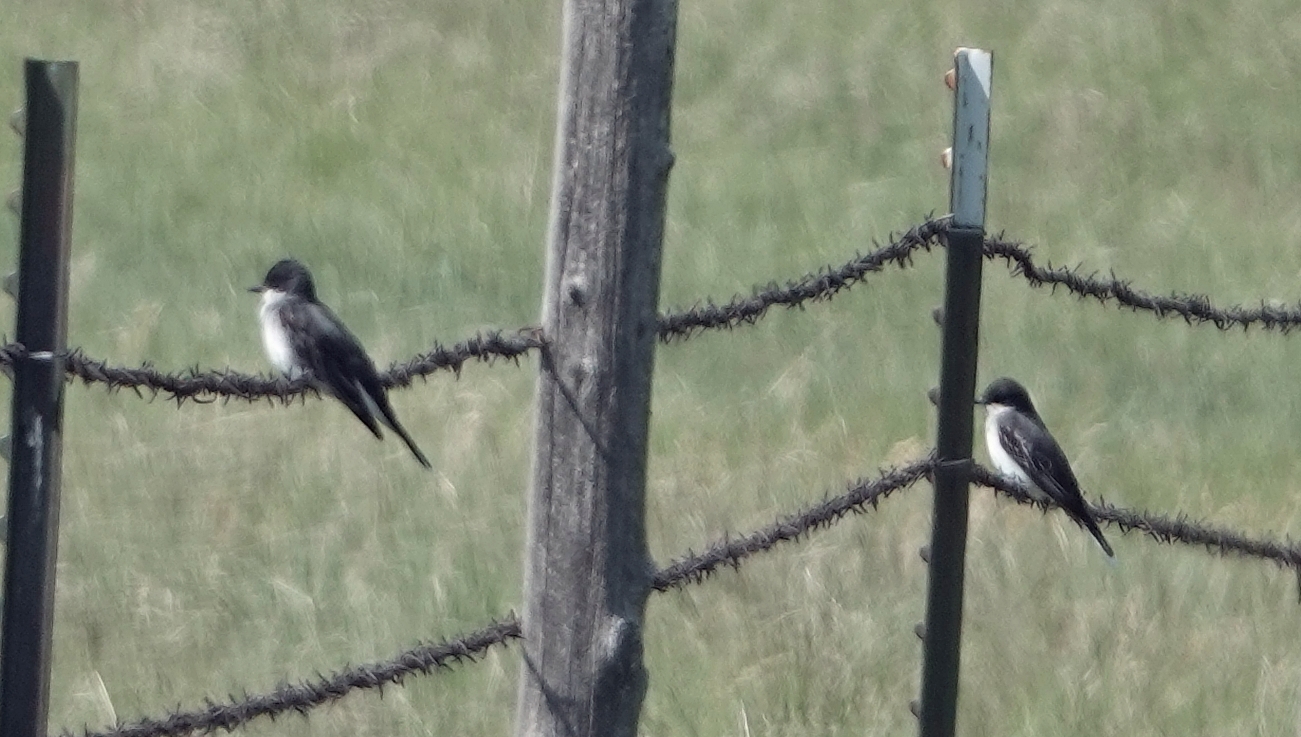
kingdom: Animalia
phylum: Chordata
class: Aves
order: Passeriformes
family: Tyrannidae
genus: Tyrannus
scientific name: Tyrannus tyrannus
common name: Eastern kingbird
